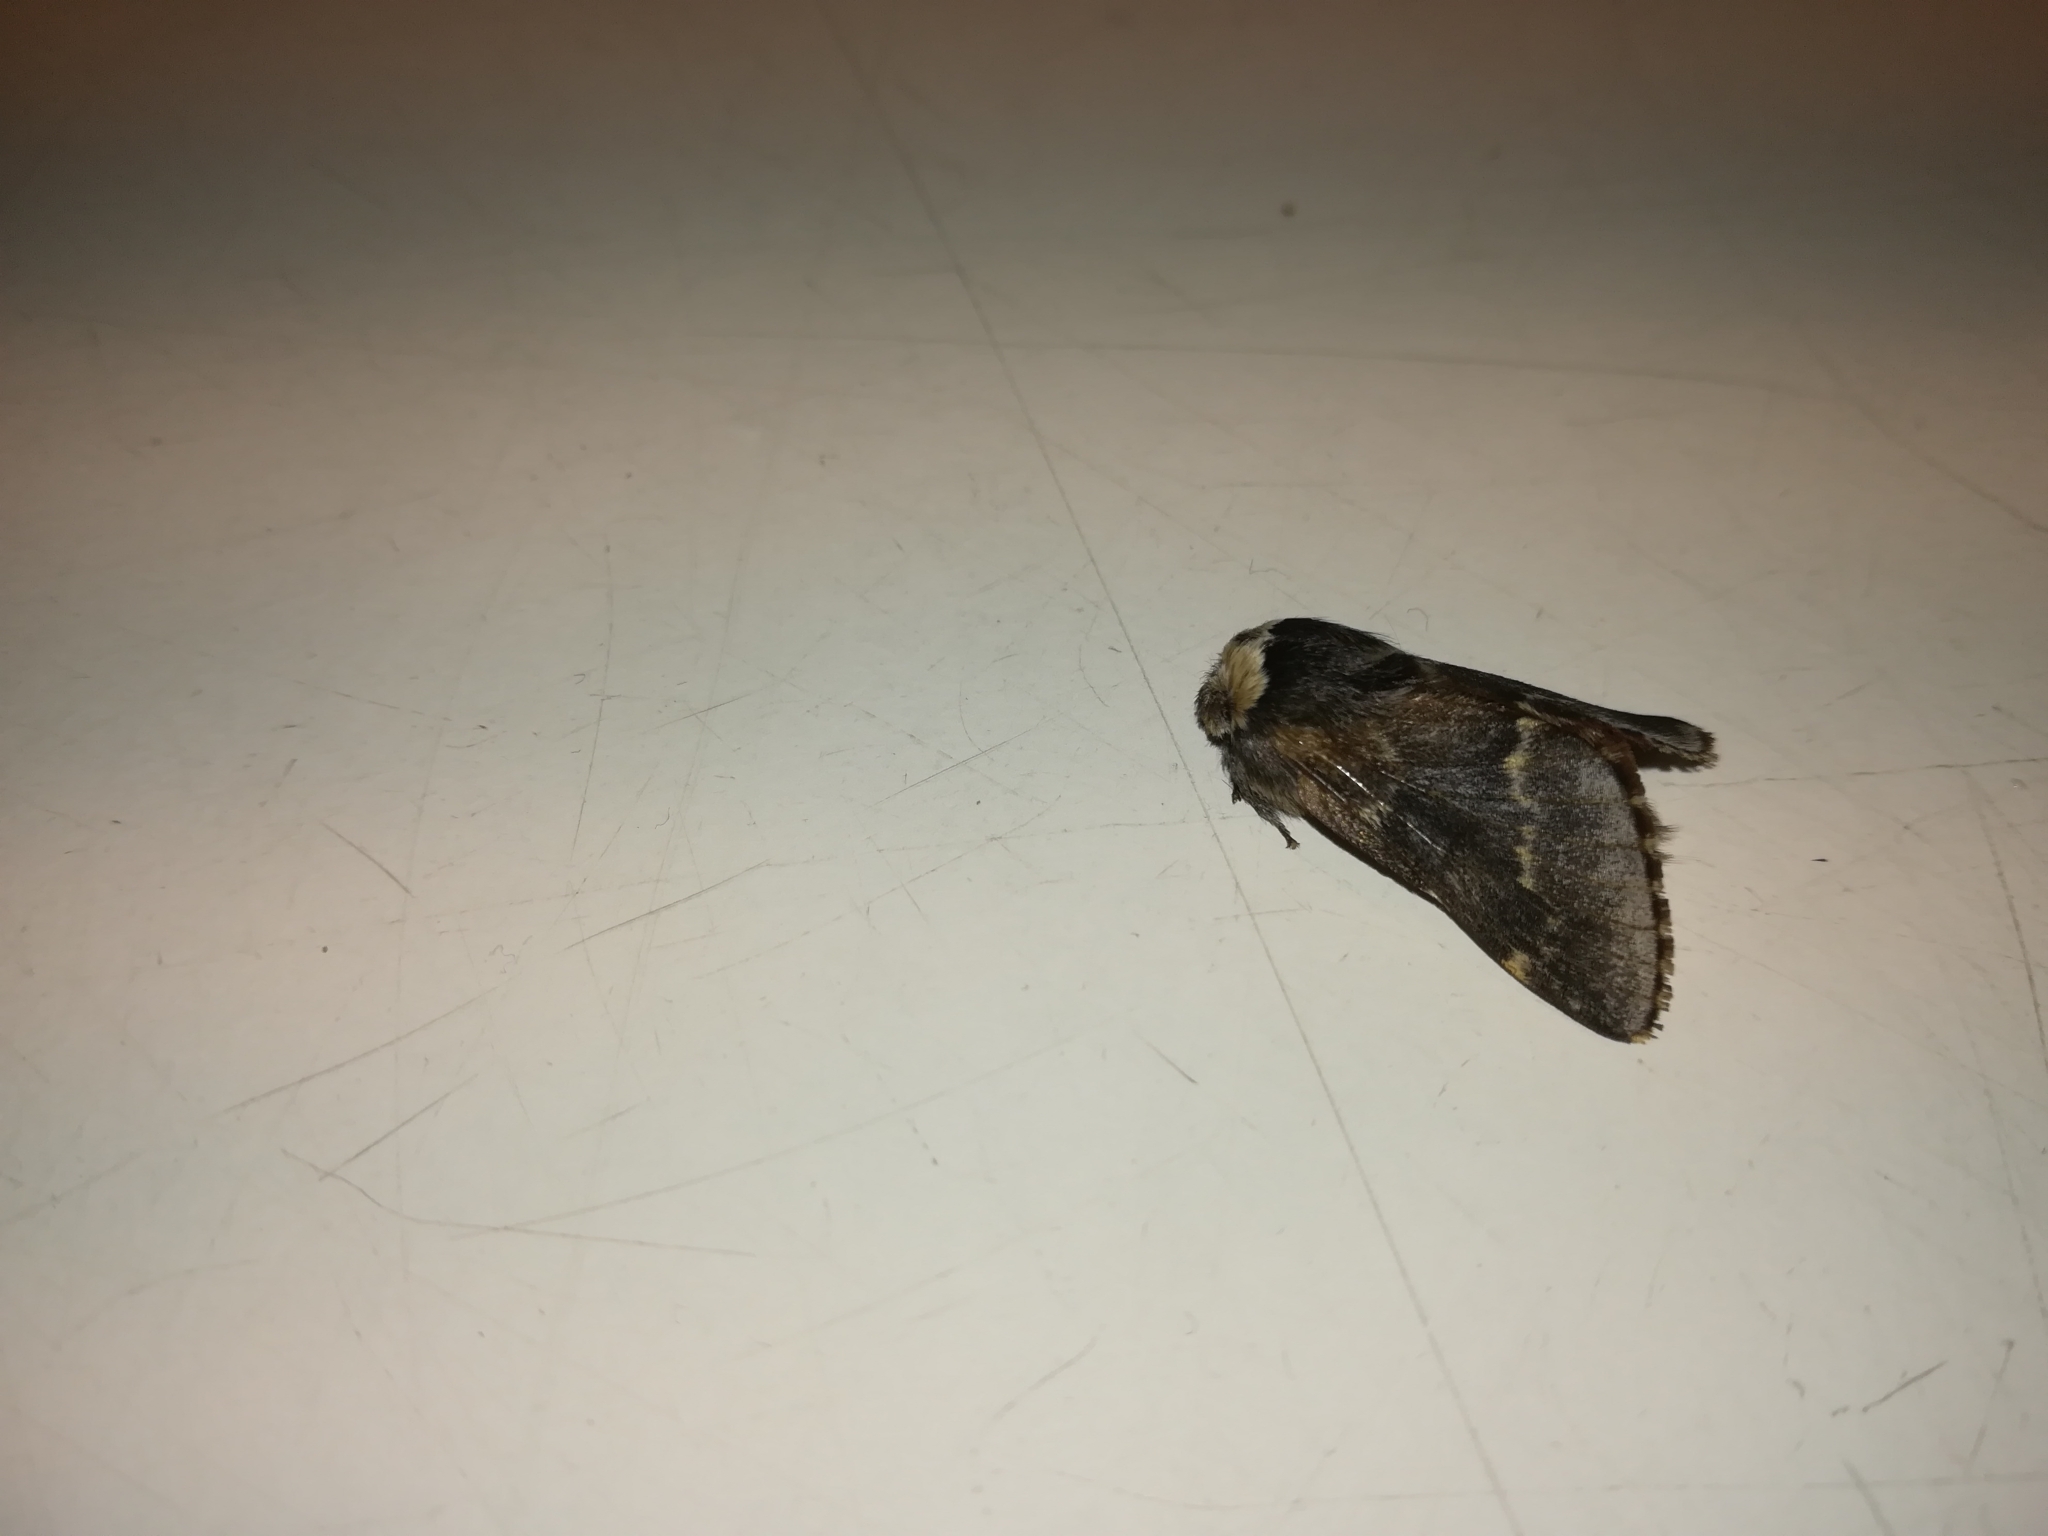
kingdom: Animalia
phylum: Arthropoda
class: Insecta
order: Lepidoptera
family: Lasiocampidae
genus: Poecilocampa
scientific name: Poecilocampa populi
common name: December moth
